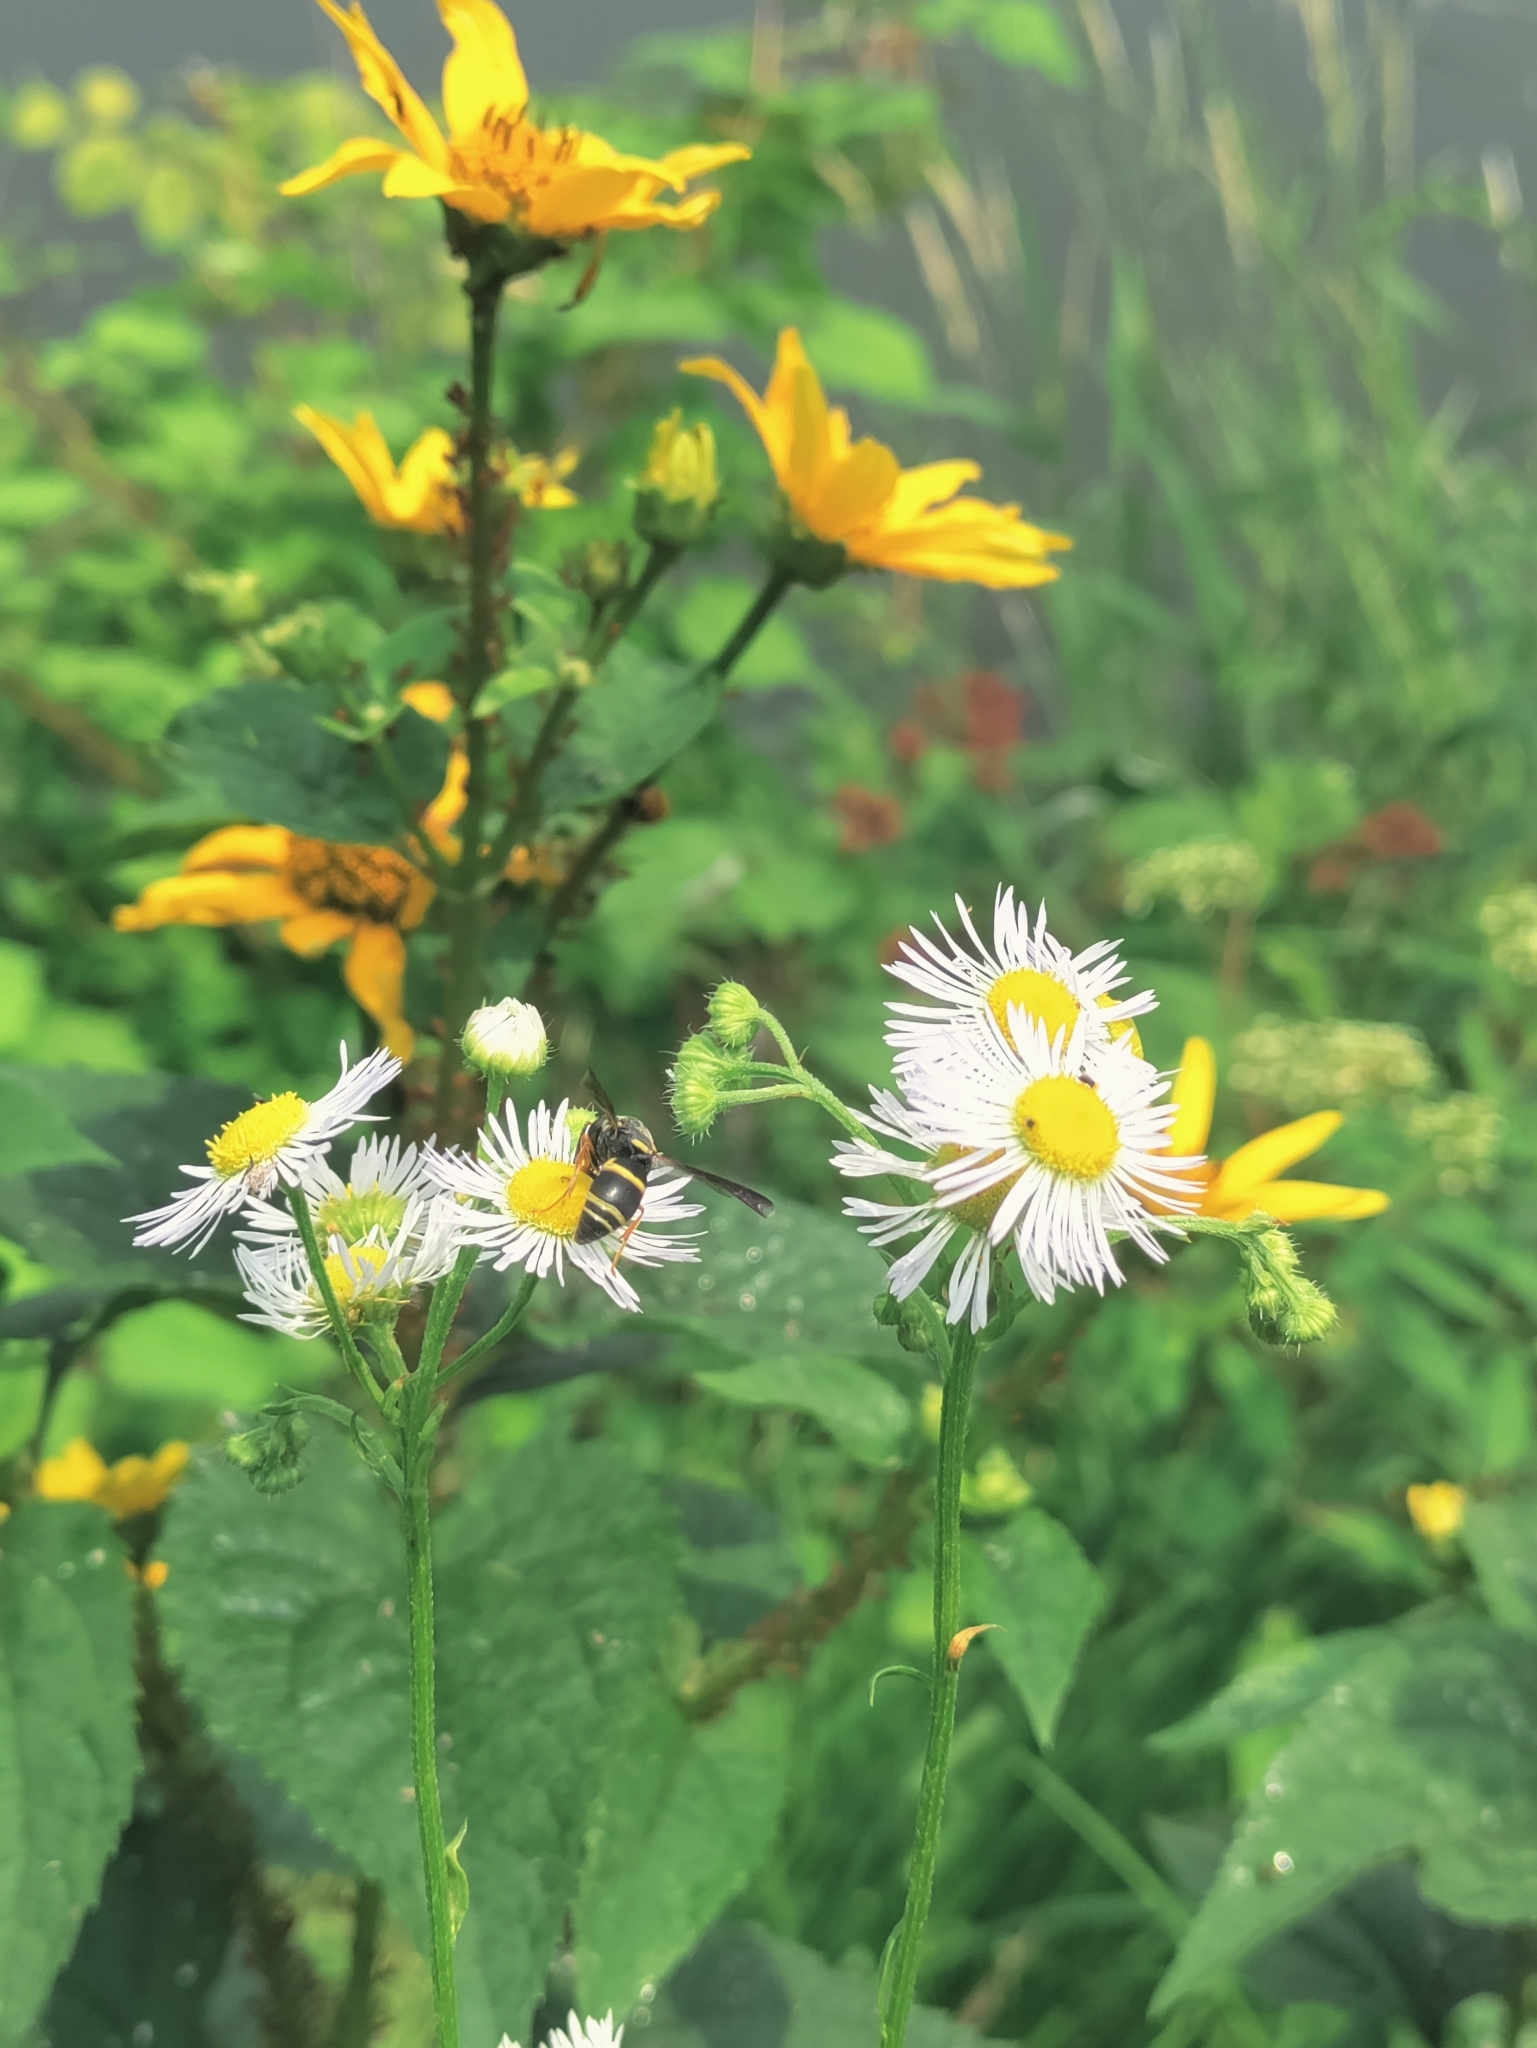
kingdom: Animalia
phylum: Arthropoda
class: Insecta
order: Hymenoptera
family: Eumenidae
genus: Euodynerus
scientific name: Euodynerus hidalgo
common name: Wasp
